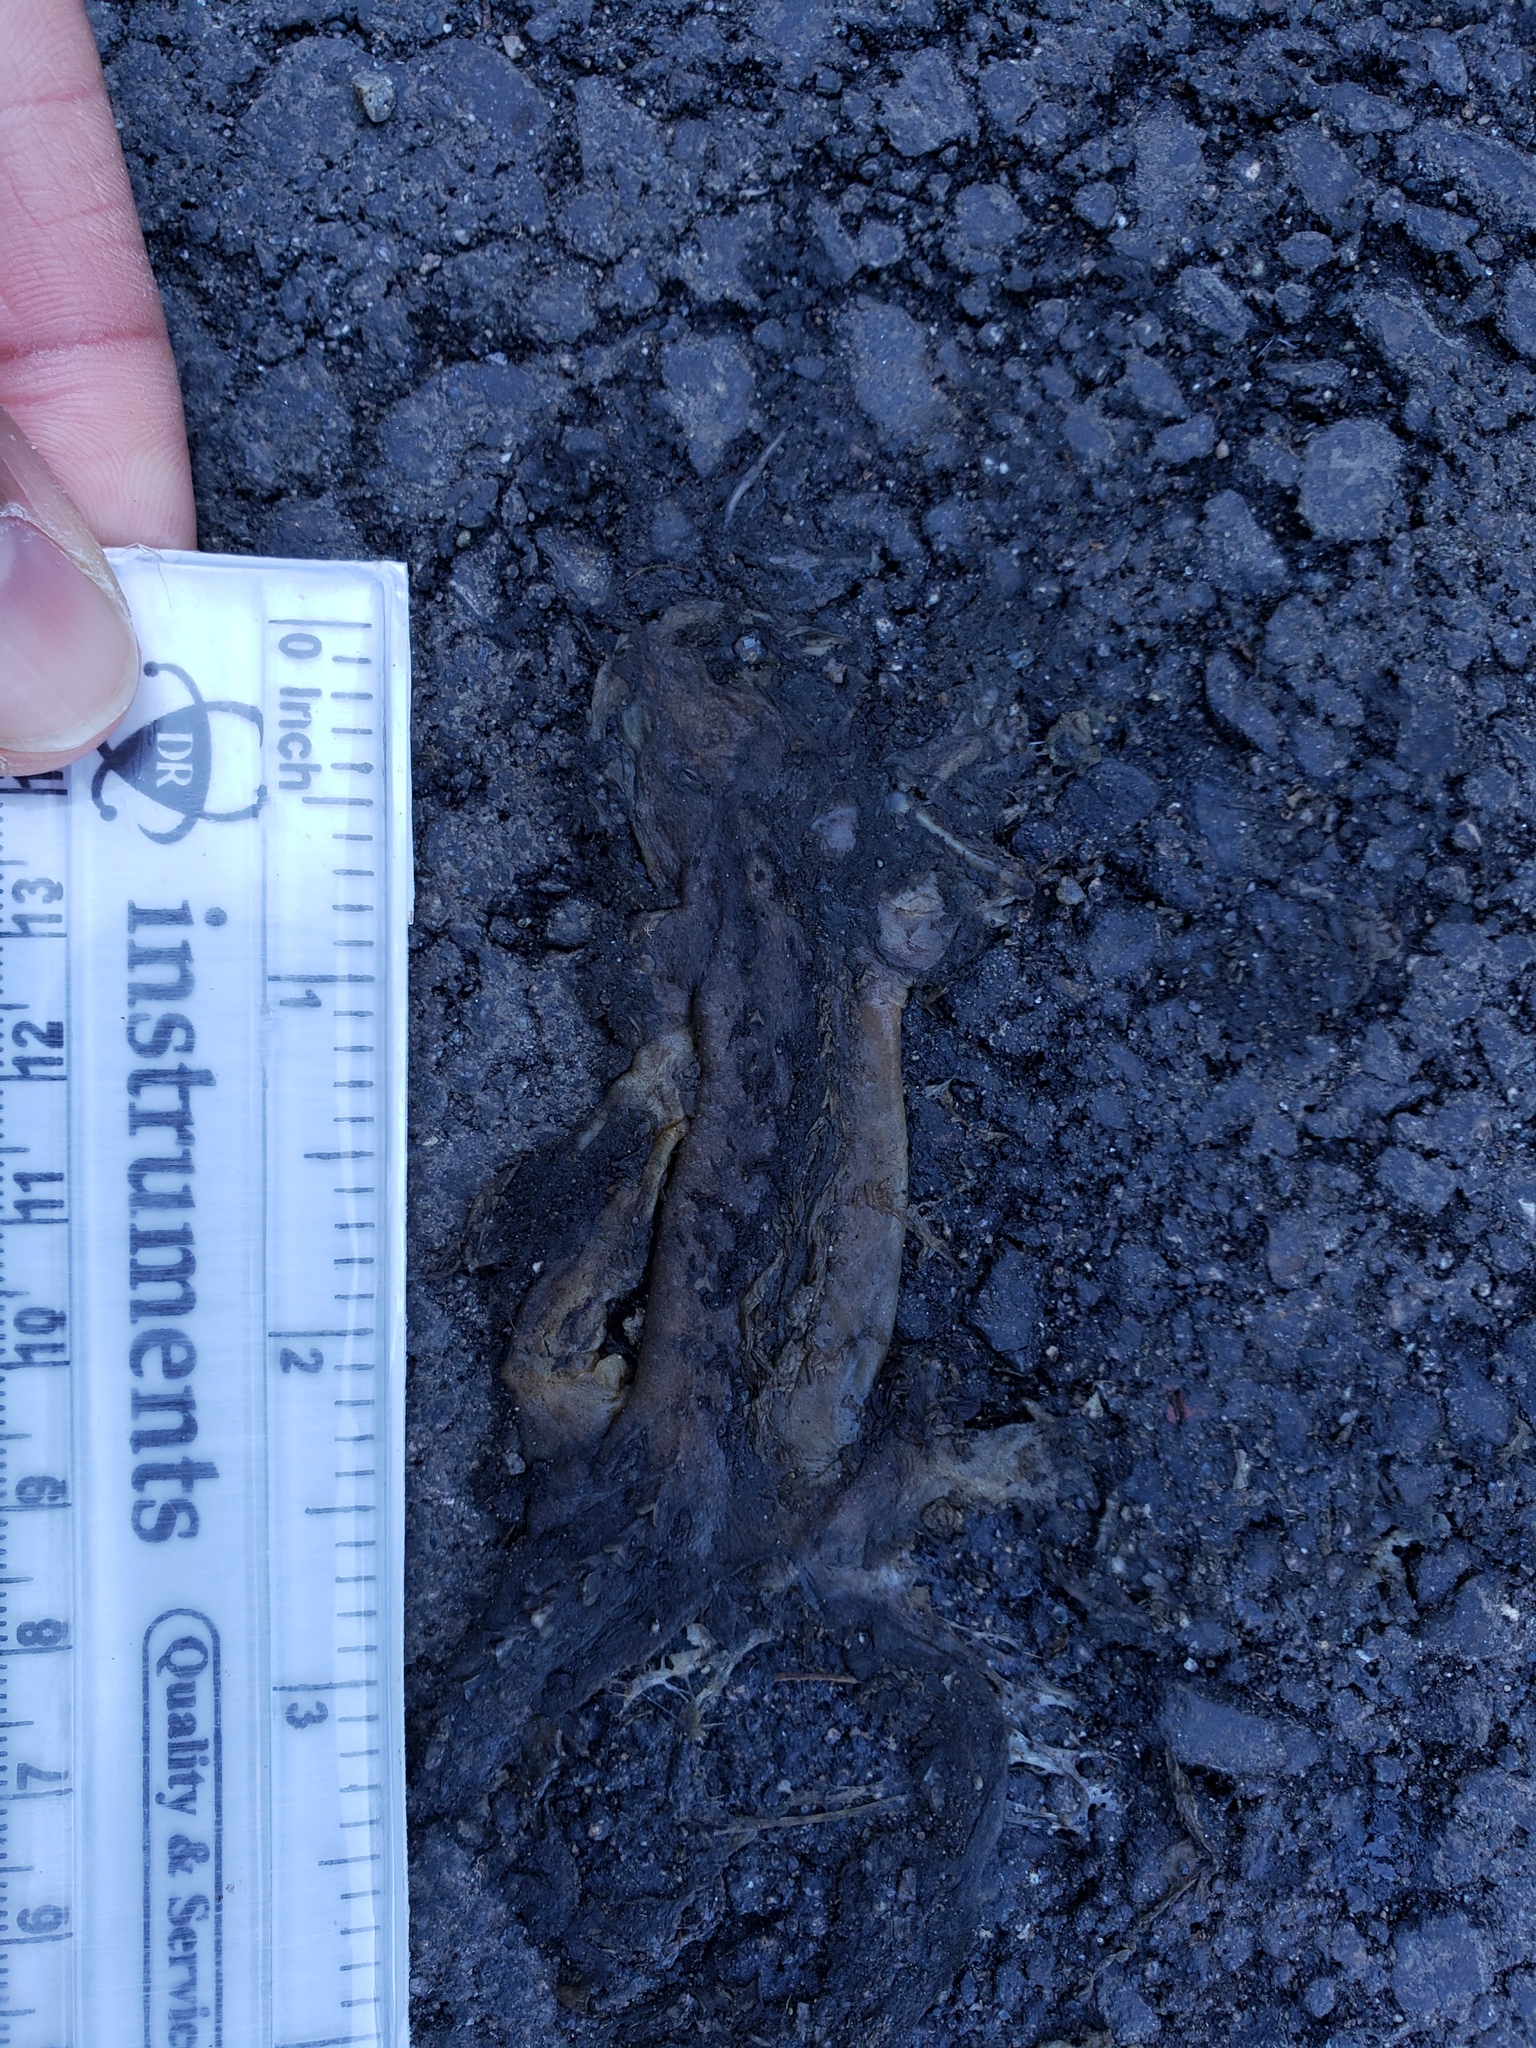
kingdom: Animalia
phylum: Chordata
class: Amphibia
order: Caudata
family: Salamandridae
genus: Taricha
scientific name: Taricha
